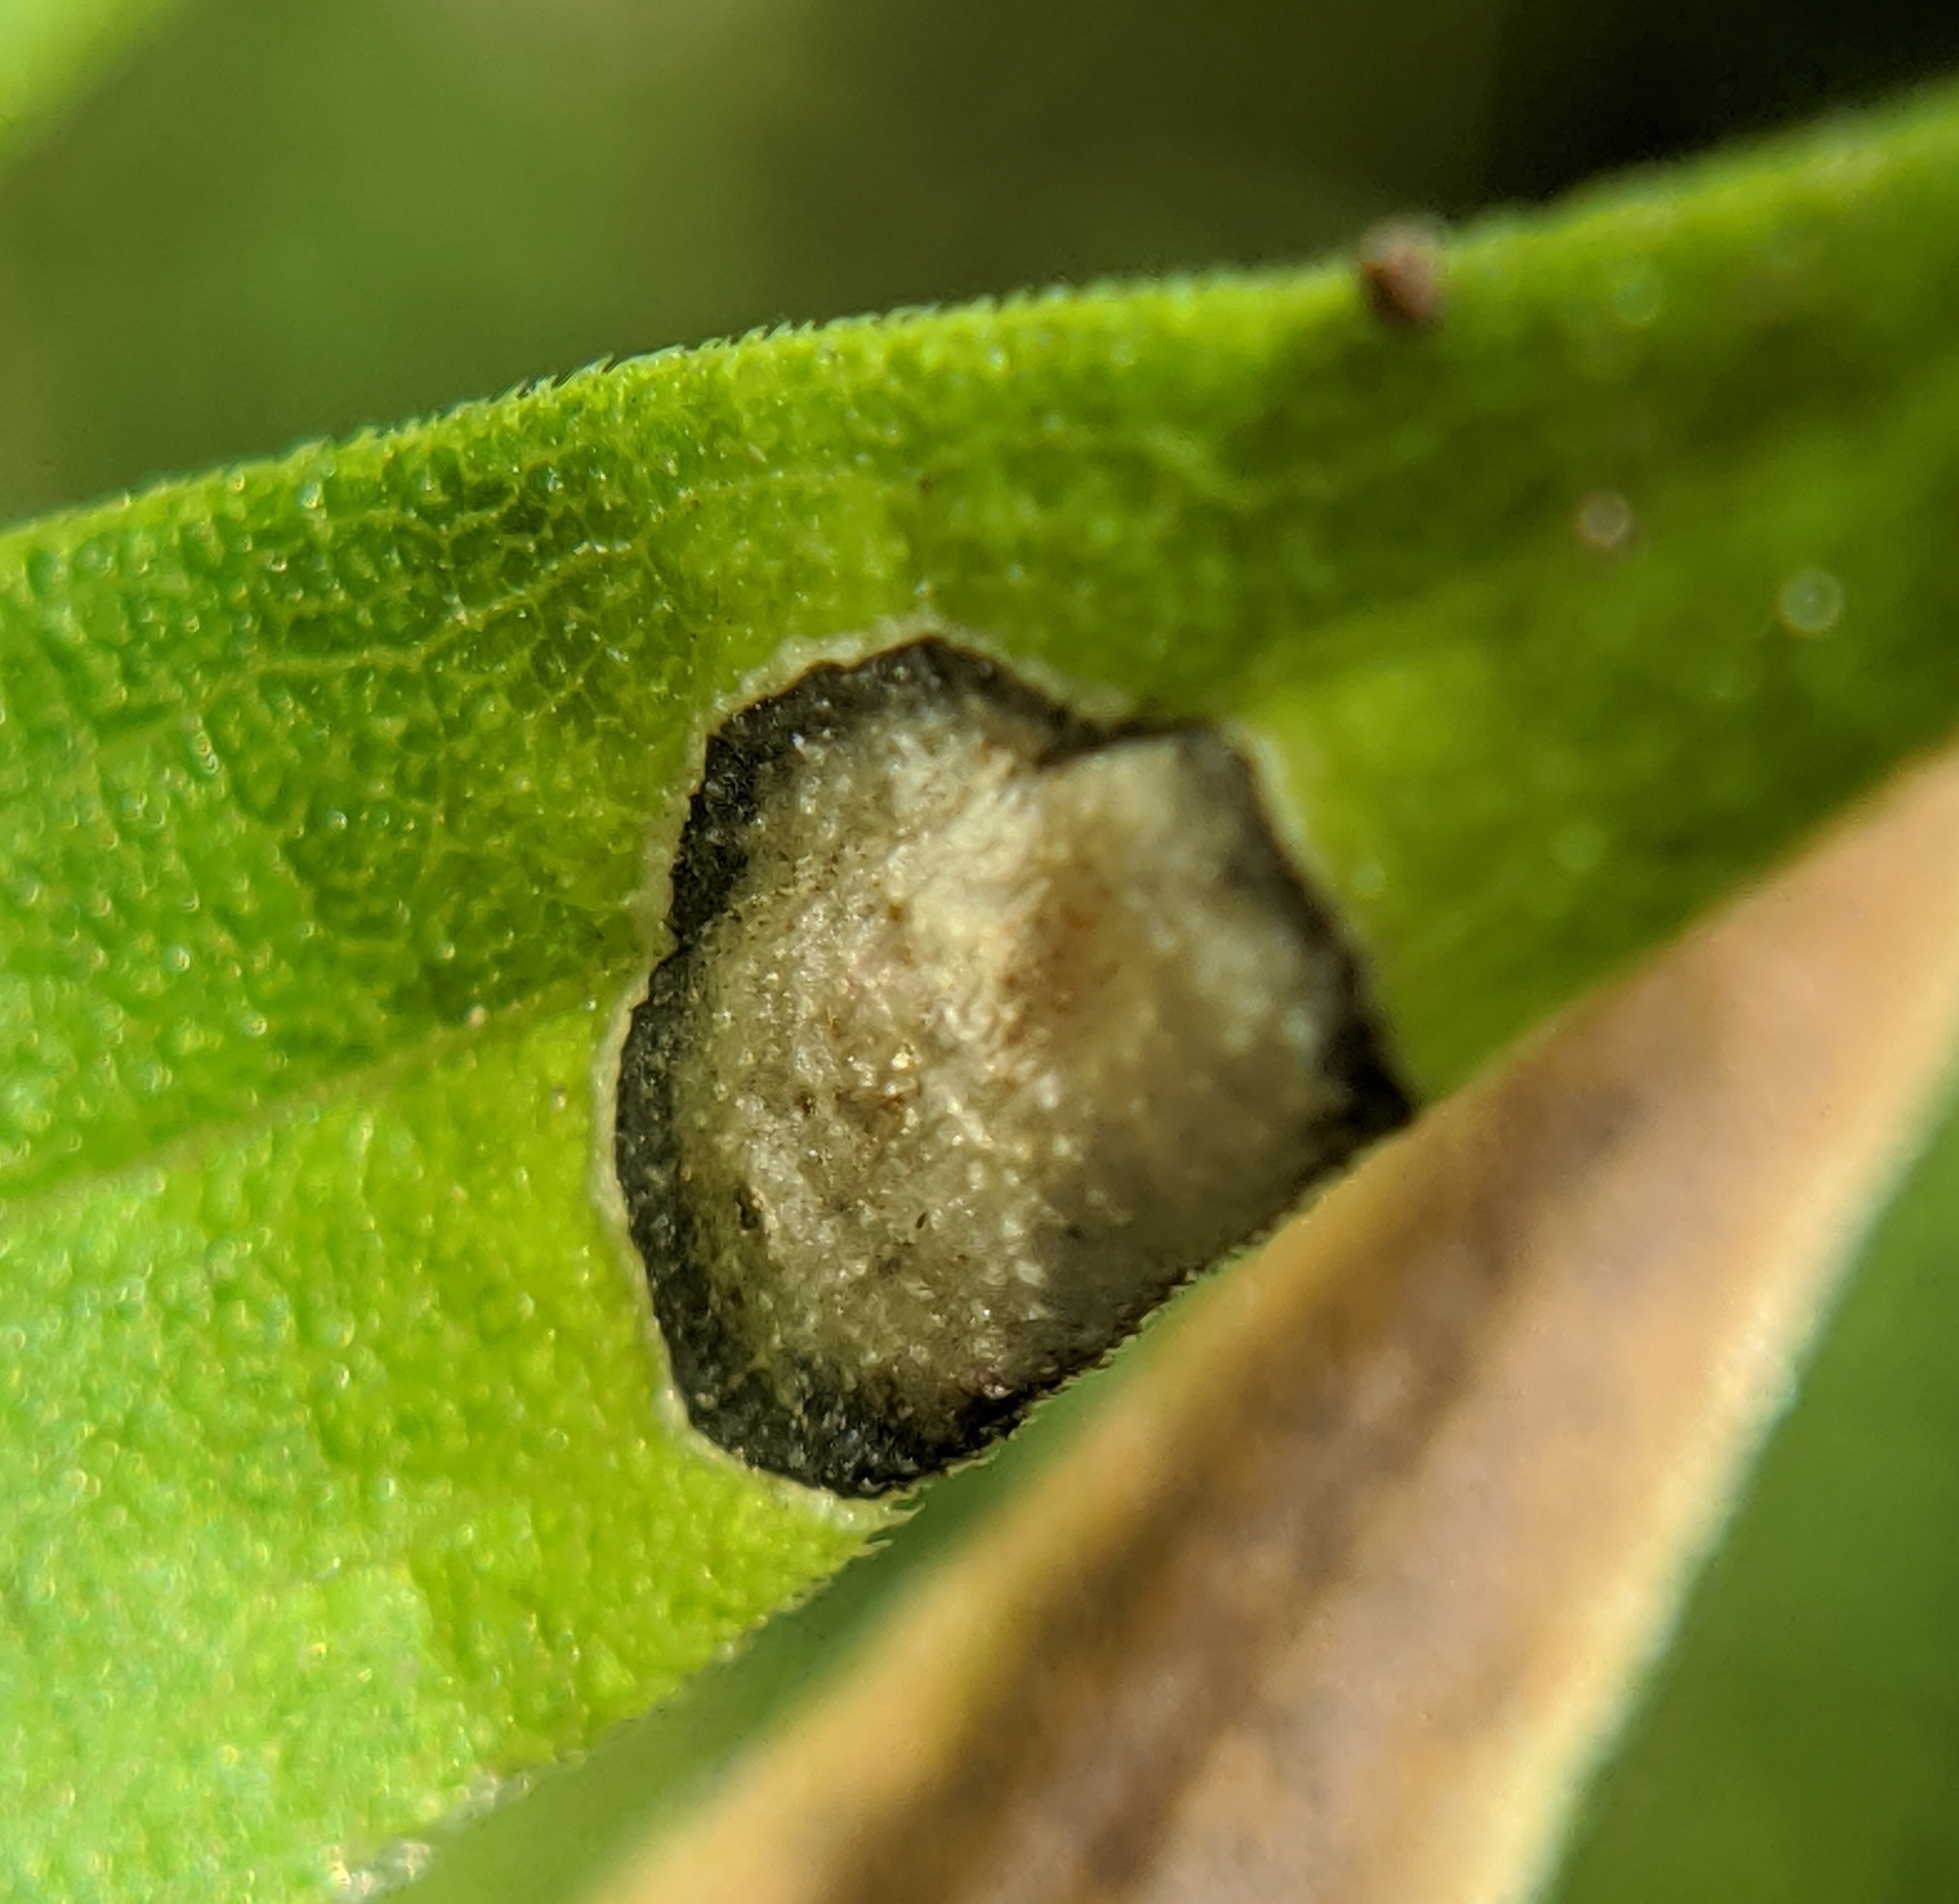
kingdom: Animalia
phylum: Arthropoda
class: Insecta
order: Diptera
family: Cecidomyiidae
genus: Asteromyia
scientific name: Asteromyia carbonifera
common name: Carbonifera goldenrod gall midge
